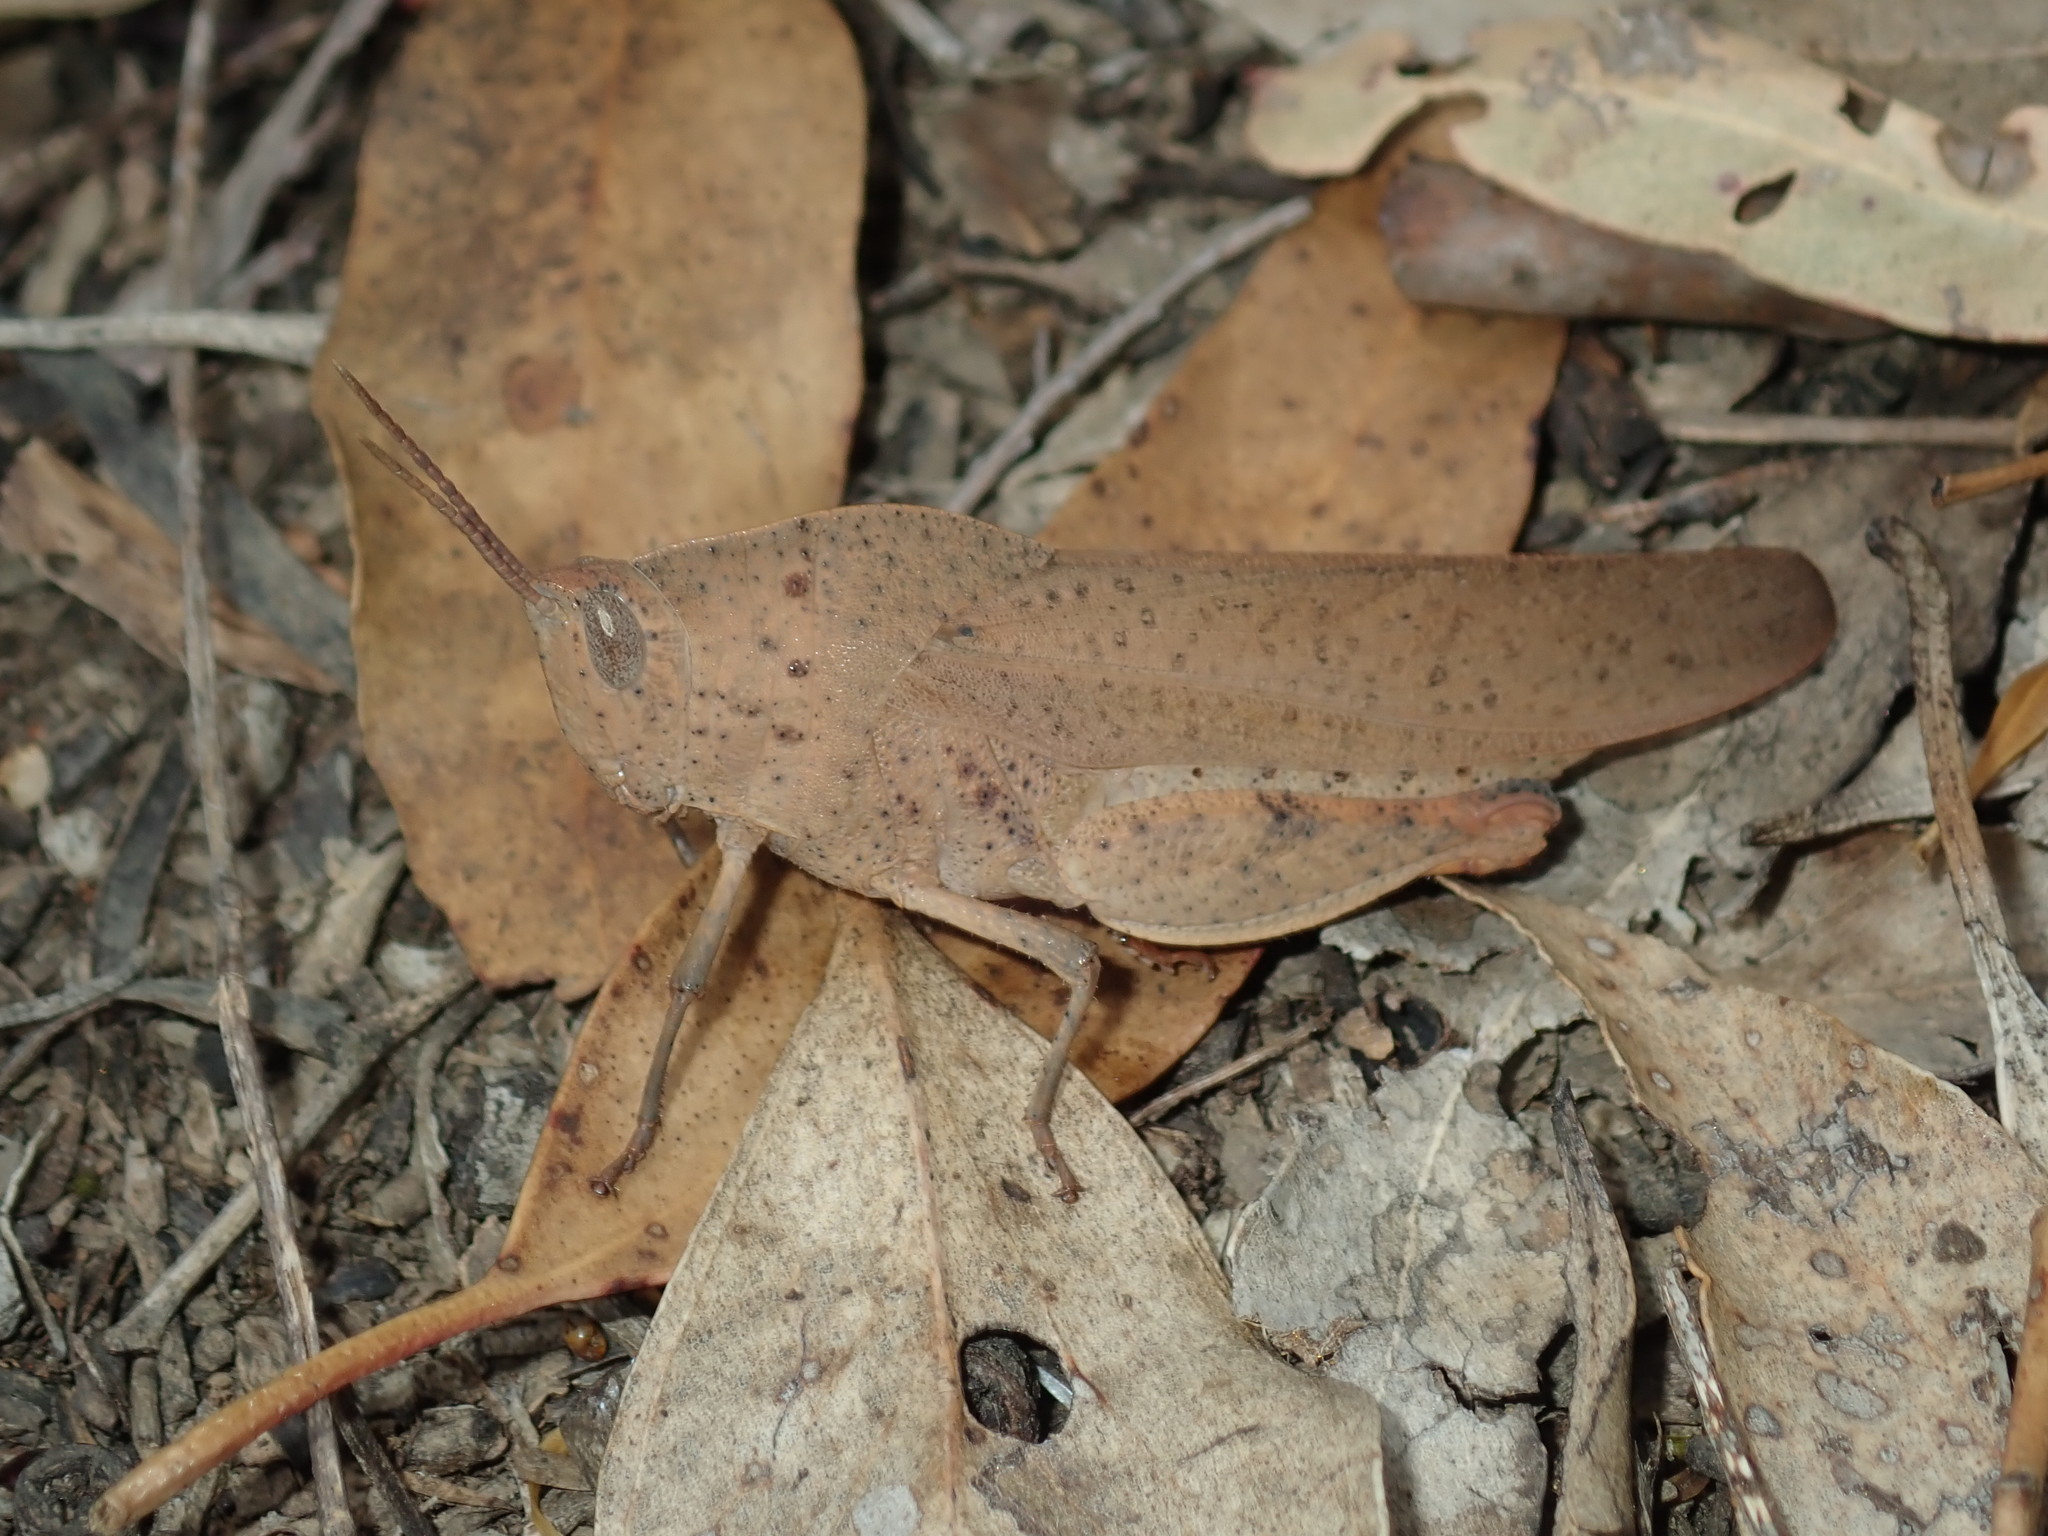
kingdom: Animalia
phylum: Arthropoda
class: Insecta
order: Orthoptera
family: Acrididae
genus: Goniaea
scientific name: Goniaea australasiae
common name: Gumleaf grasshopper
